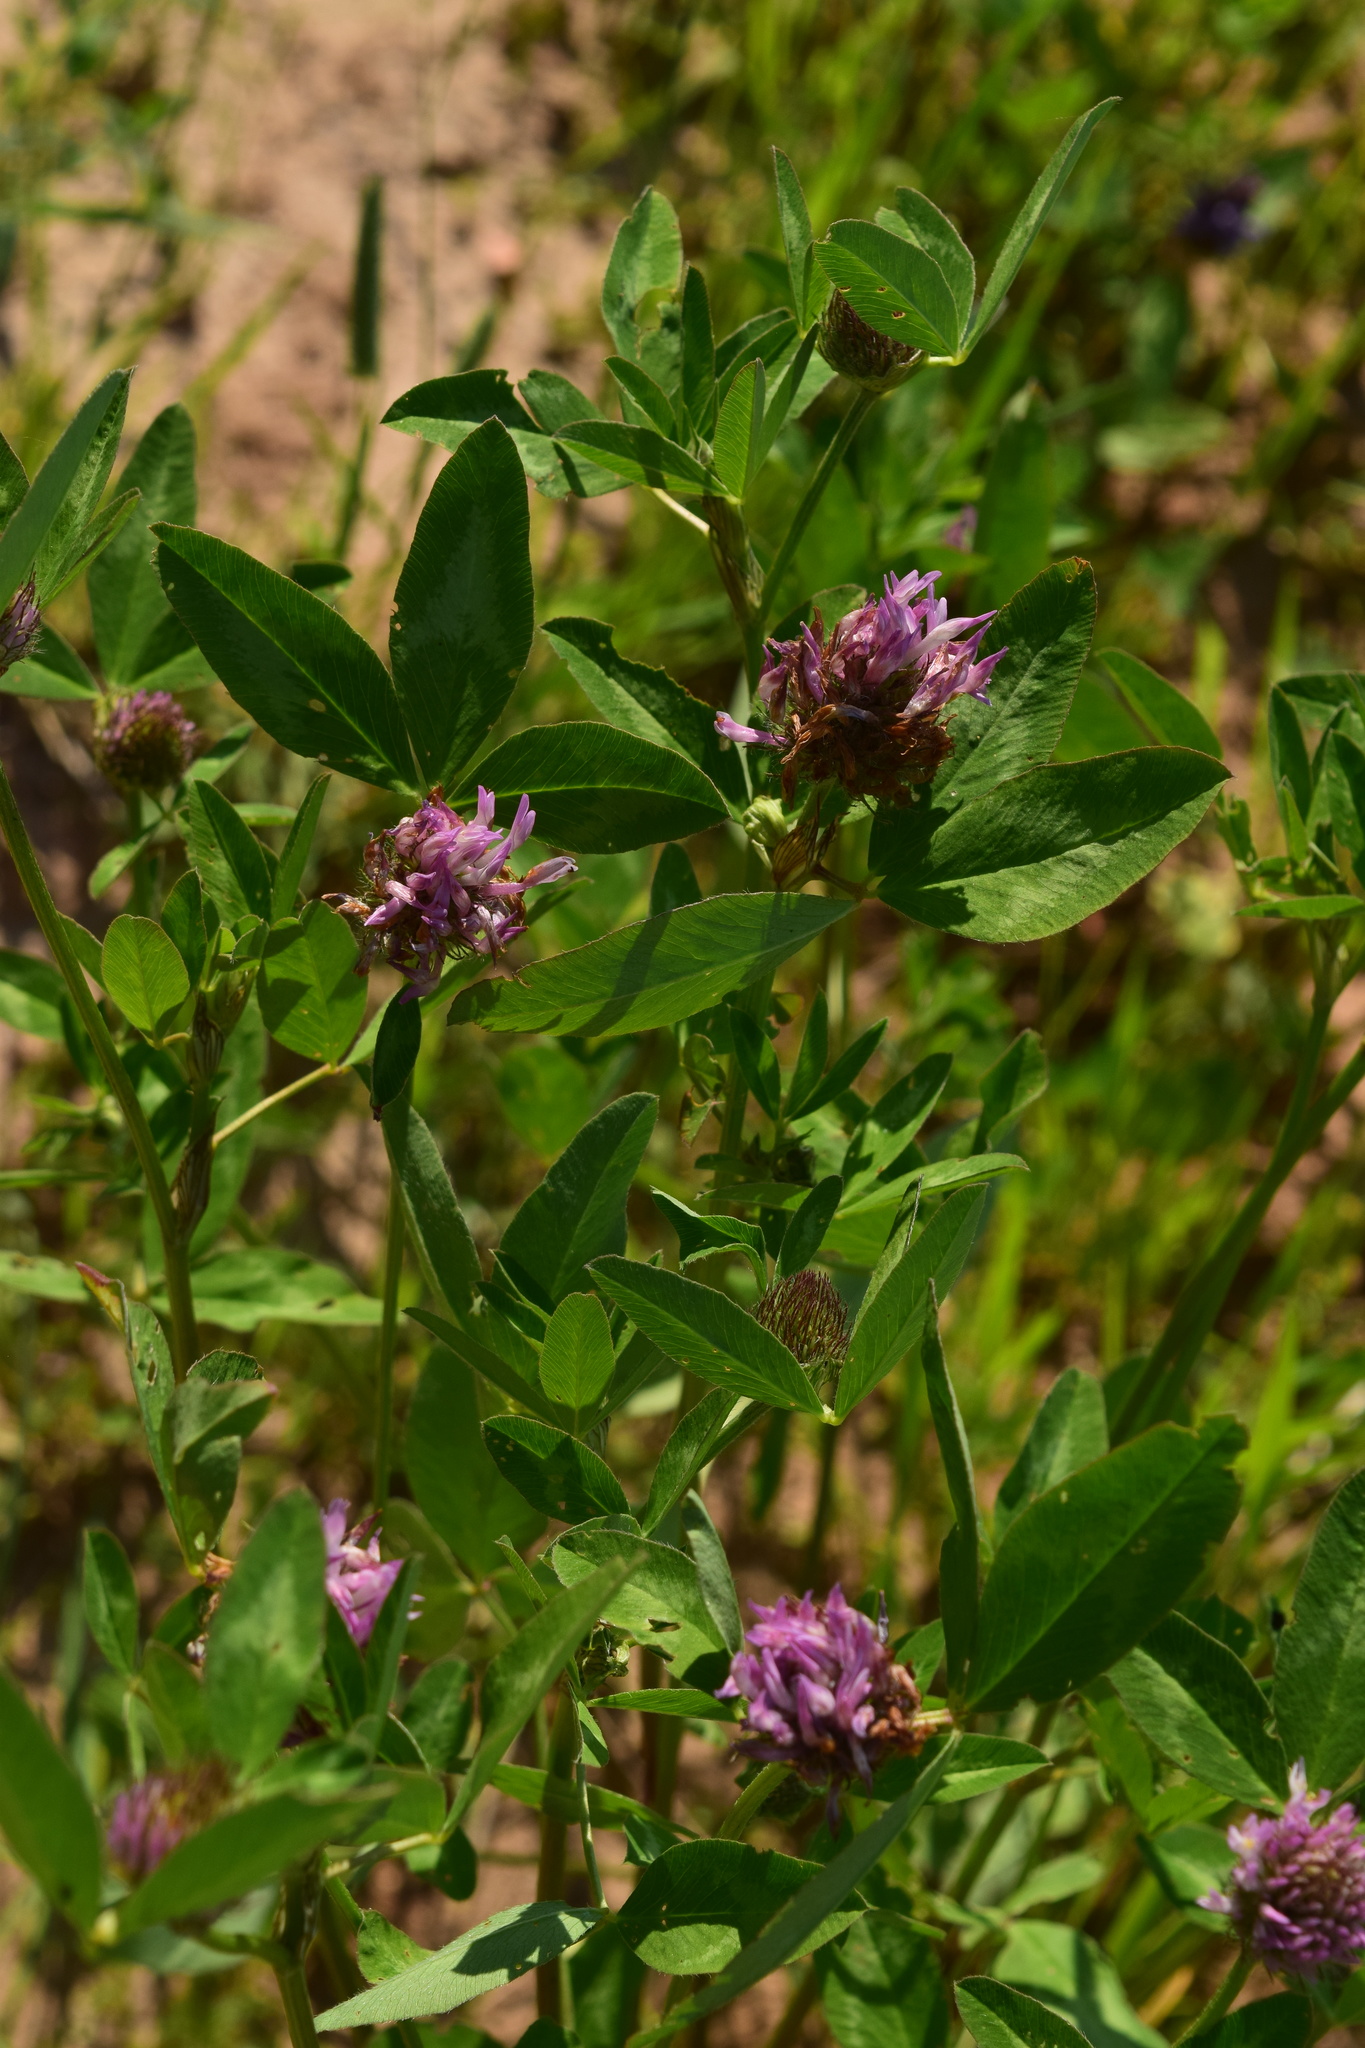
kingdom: Plantae
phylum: Tracheophyta
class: Magnoliopsida
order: Fabales
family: Fabaceae
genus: Trifolium
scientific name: Trifolium pratense
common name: Red clover
